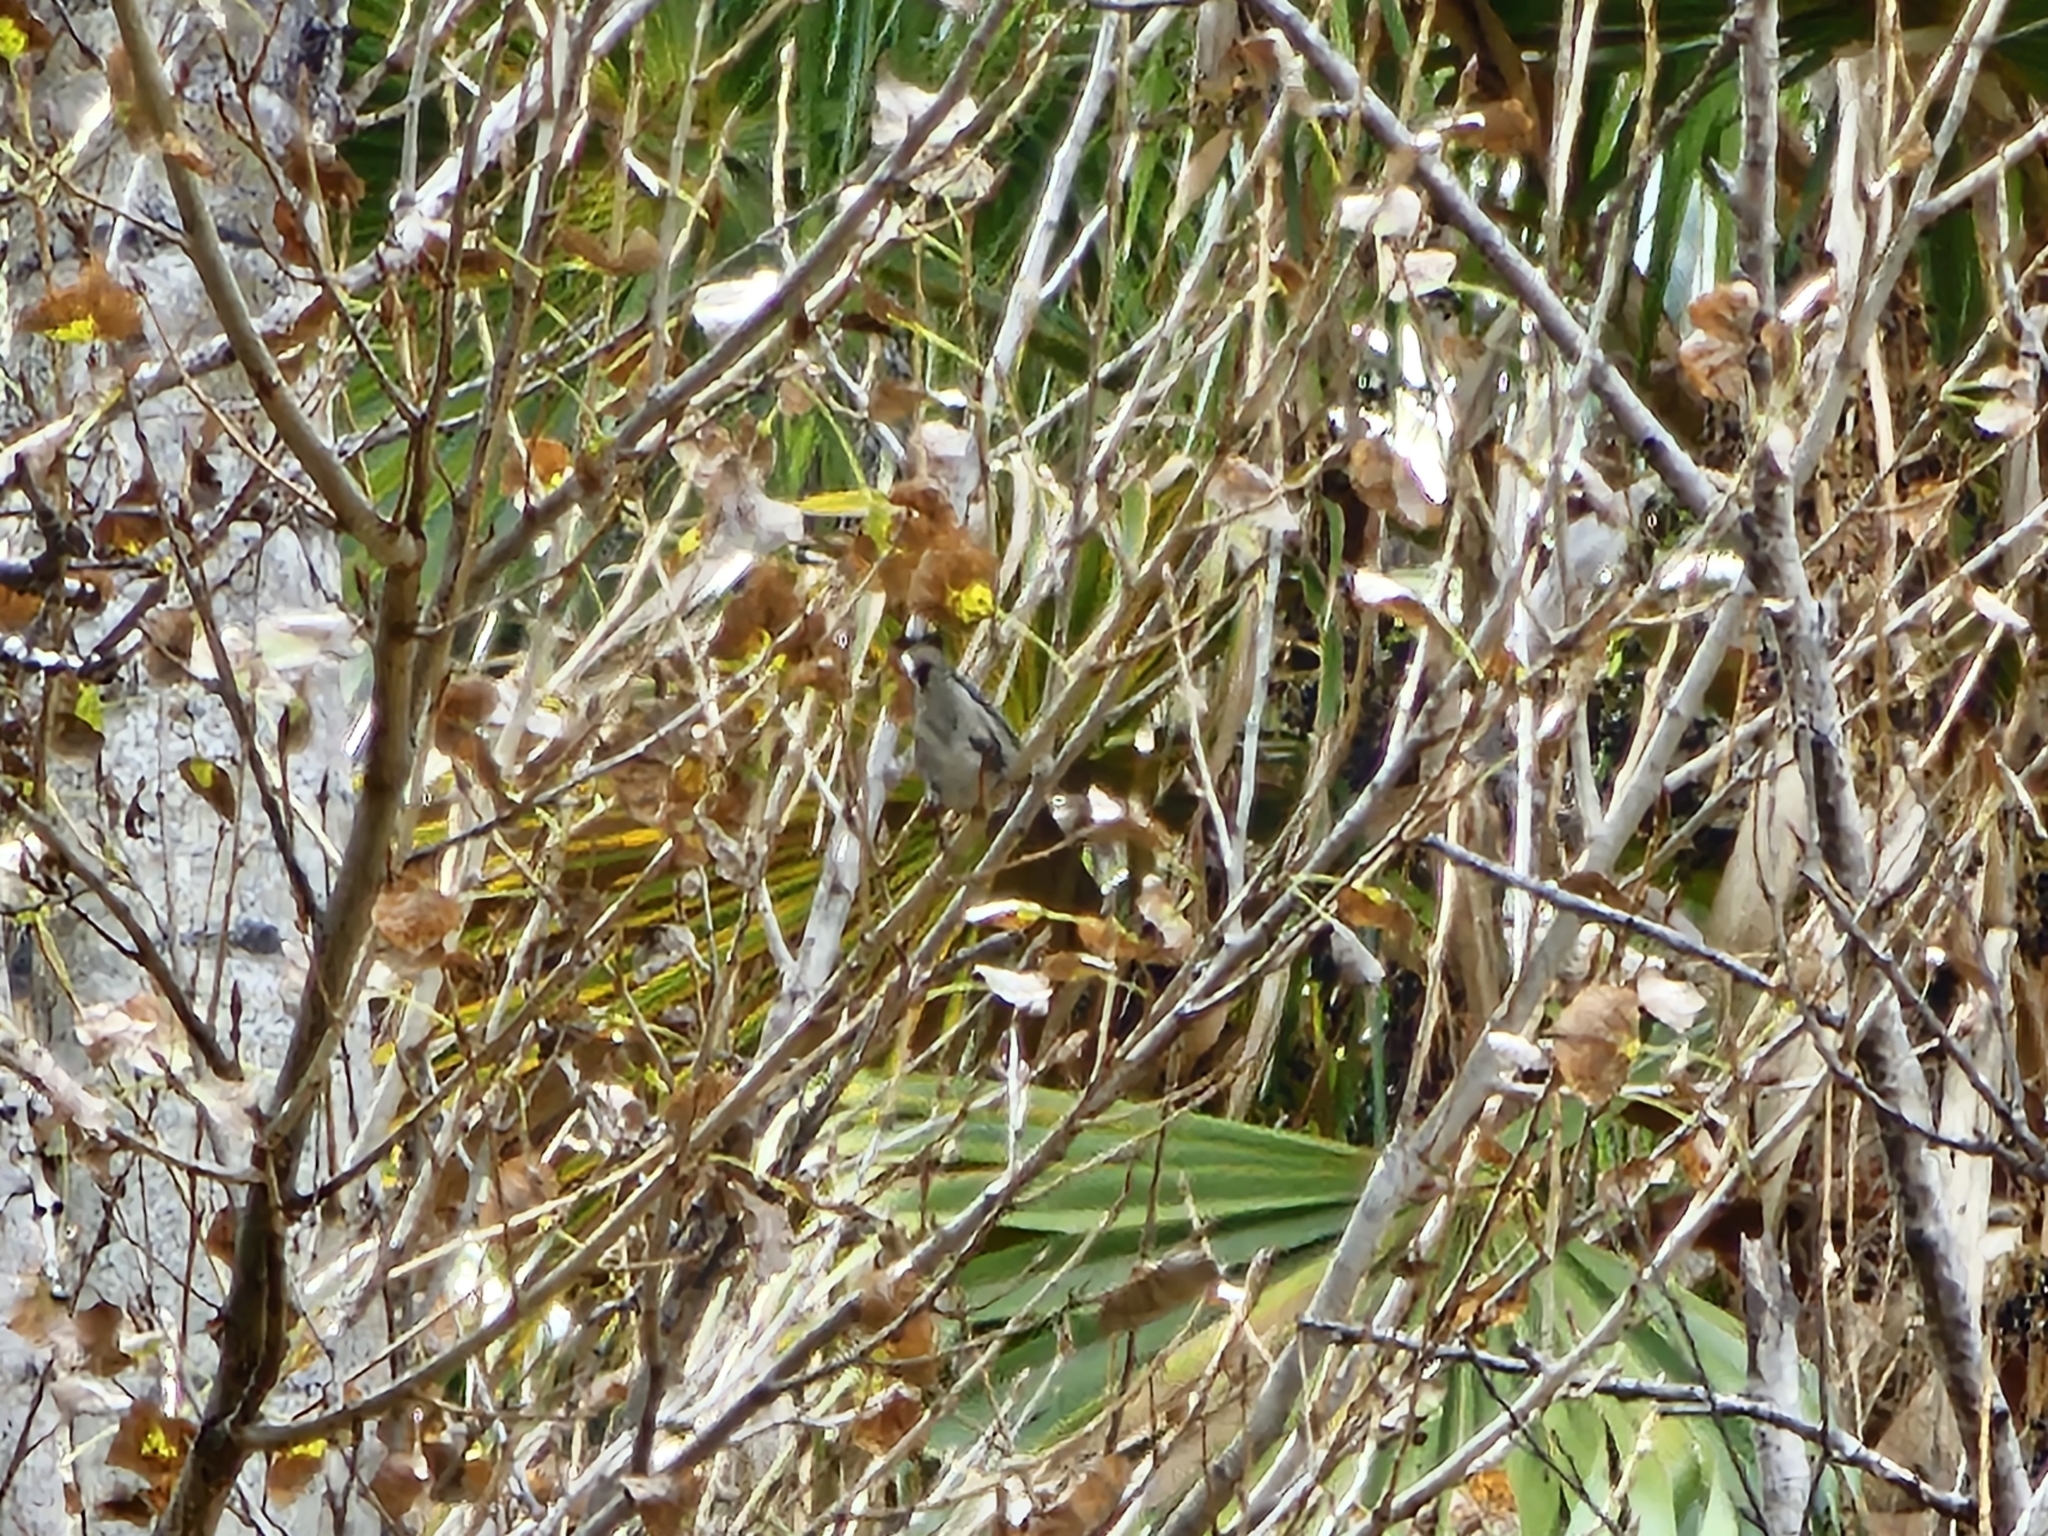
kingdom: Animalia
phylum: Chordata
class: Aves
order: Passeriformes
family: Parulidae
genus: Setophaga
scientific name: Setophaga auduboni
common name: Audubon's warbler
